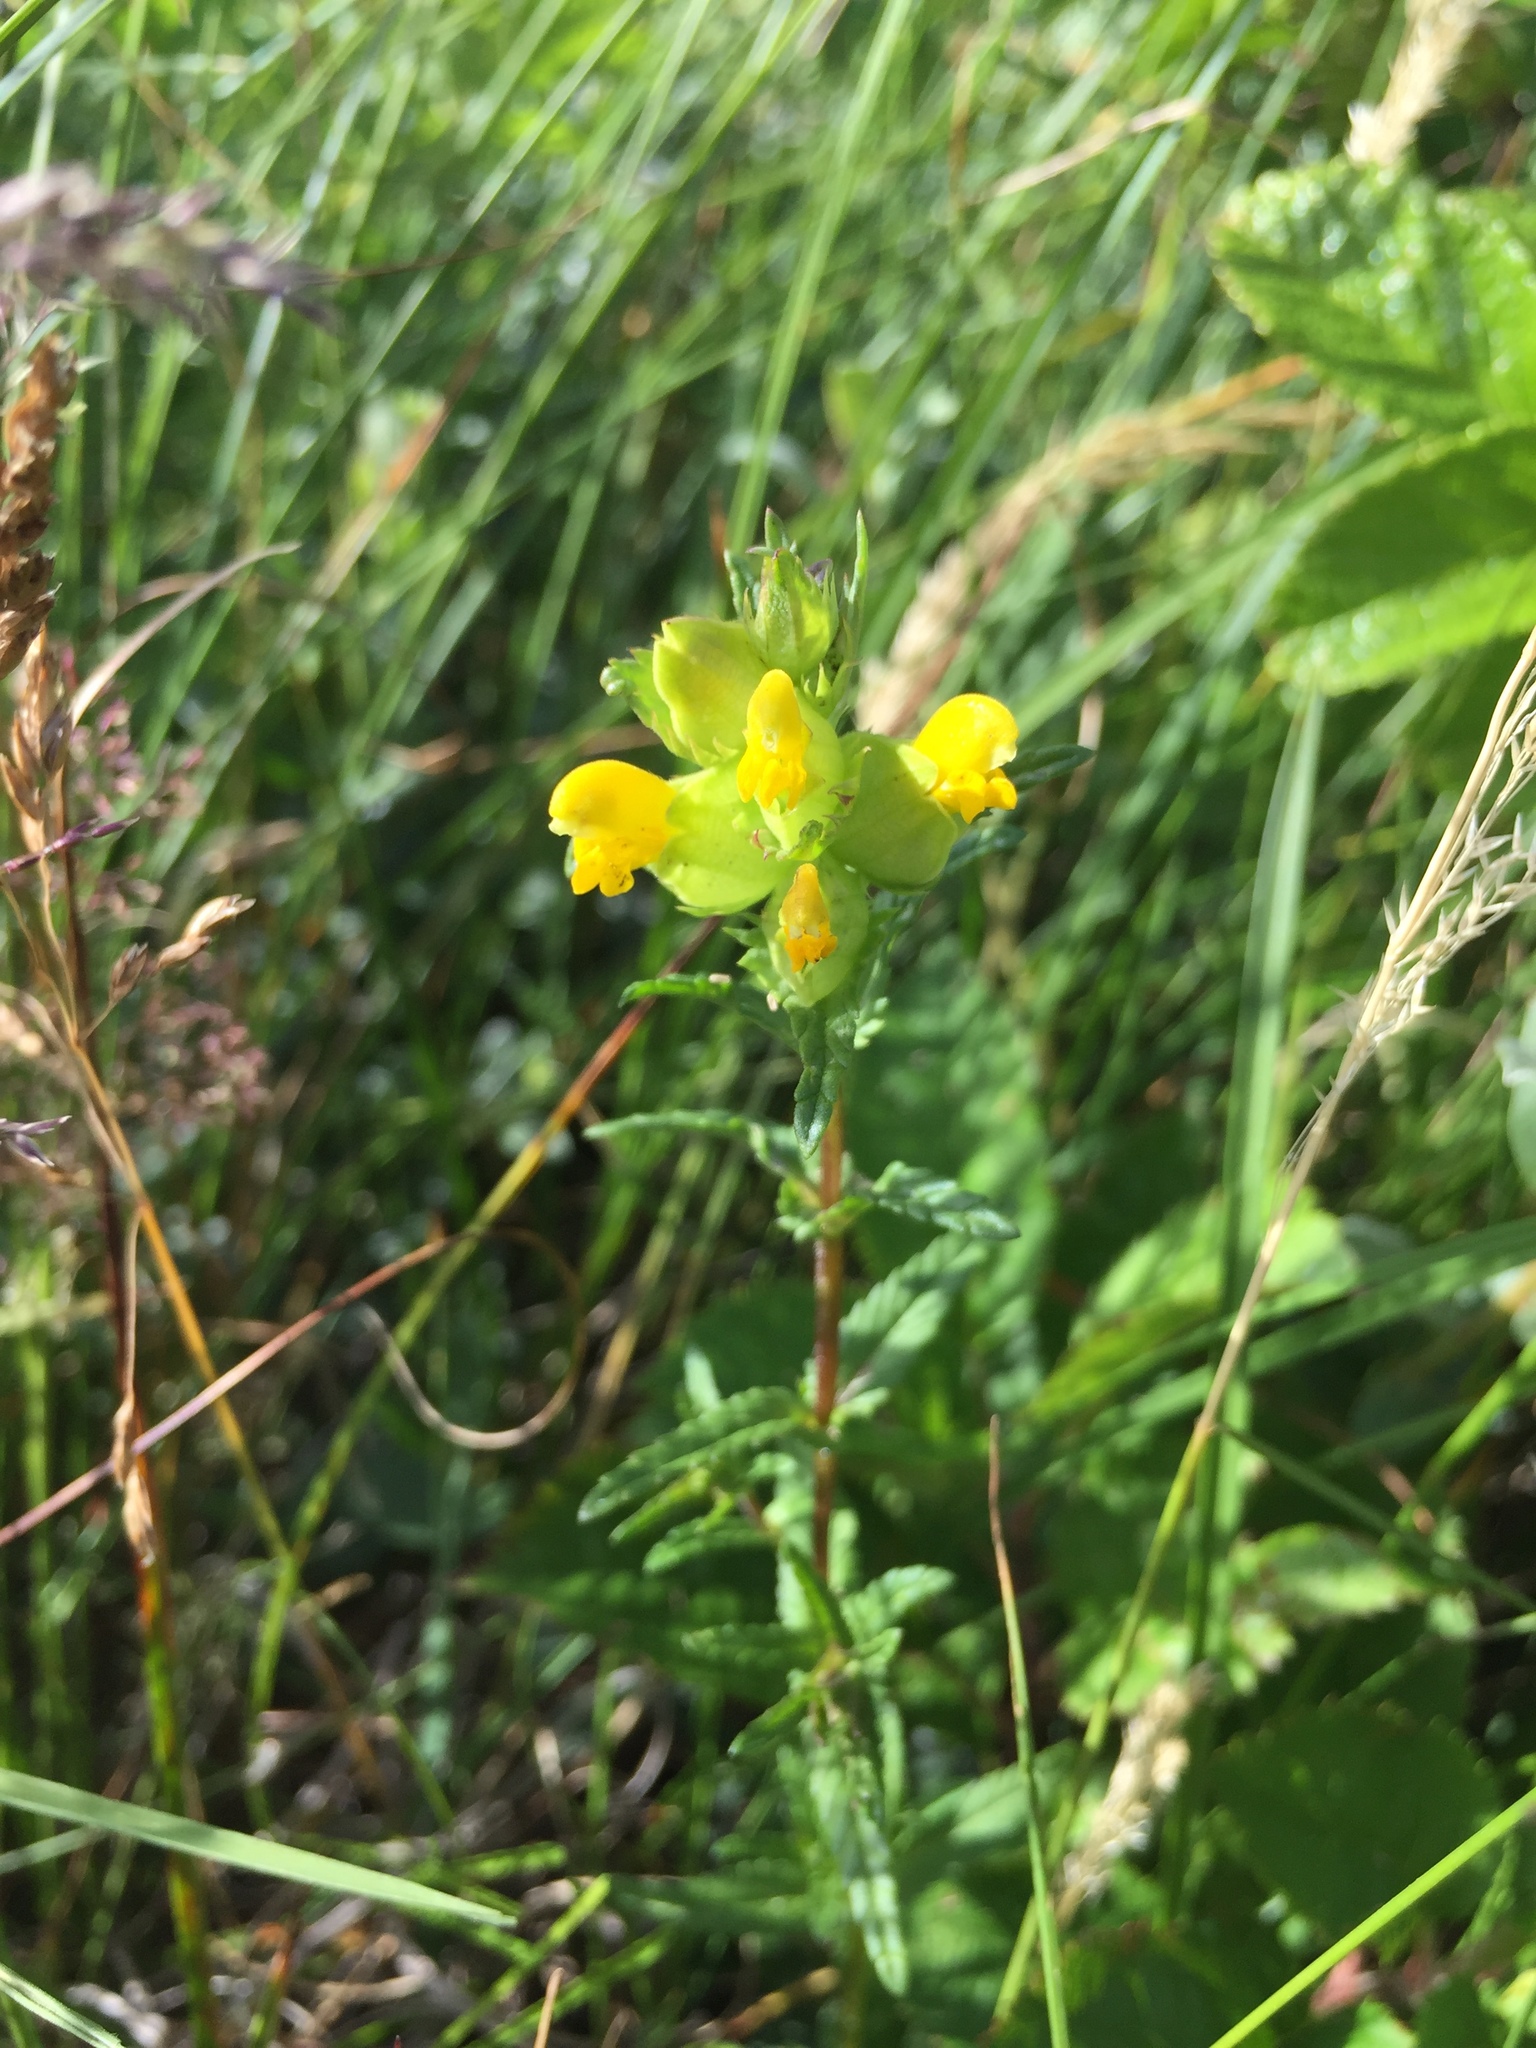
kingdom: Plantae
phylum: Tracheophyta
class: Magnoliopsida
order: Lamiales
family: Orobanchaceae
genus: Rhinanthus
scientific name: Rhinanthus minor
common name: Yellow-rattle
